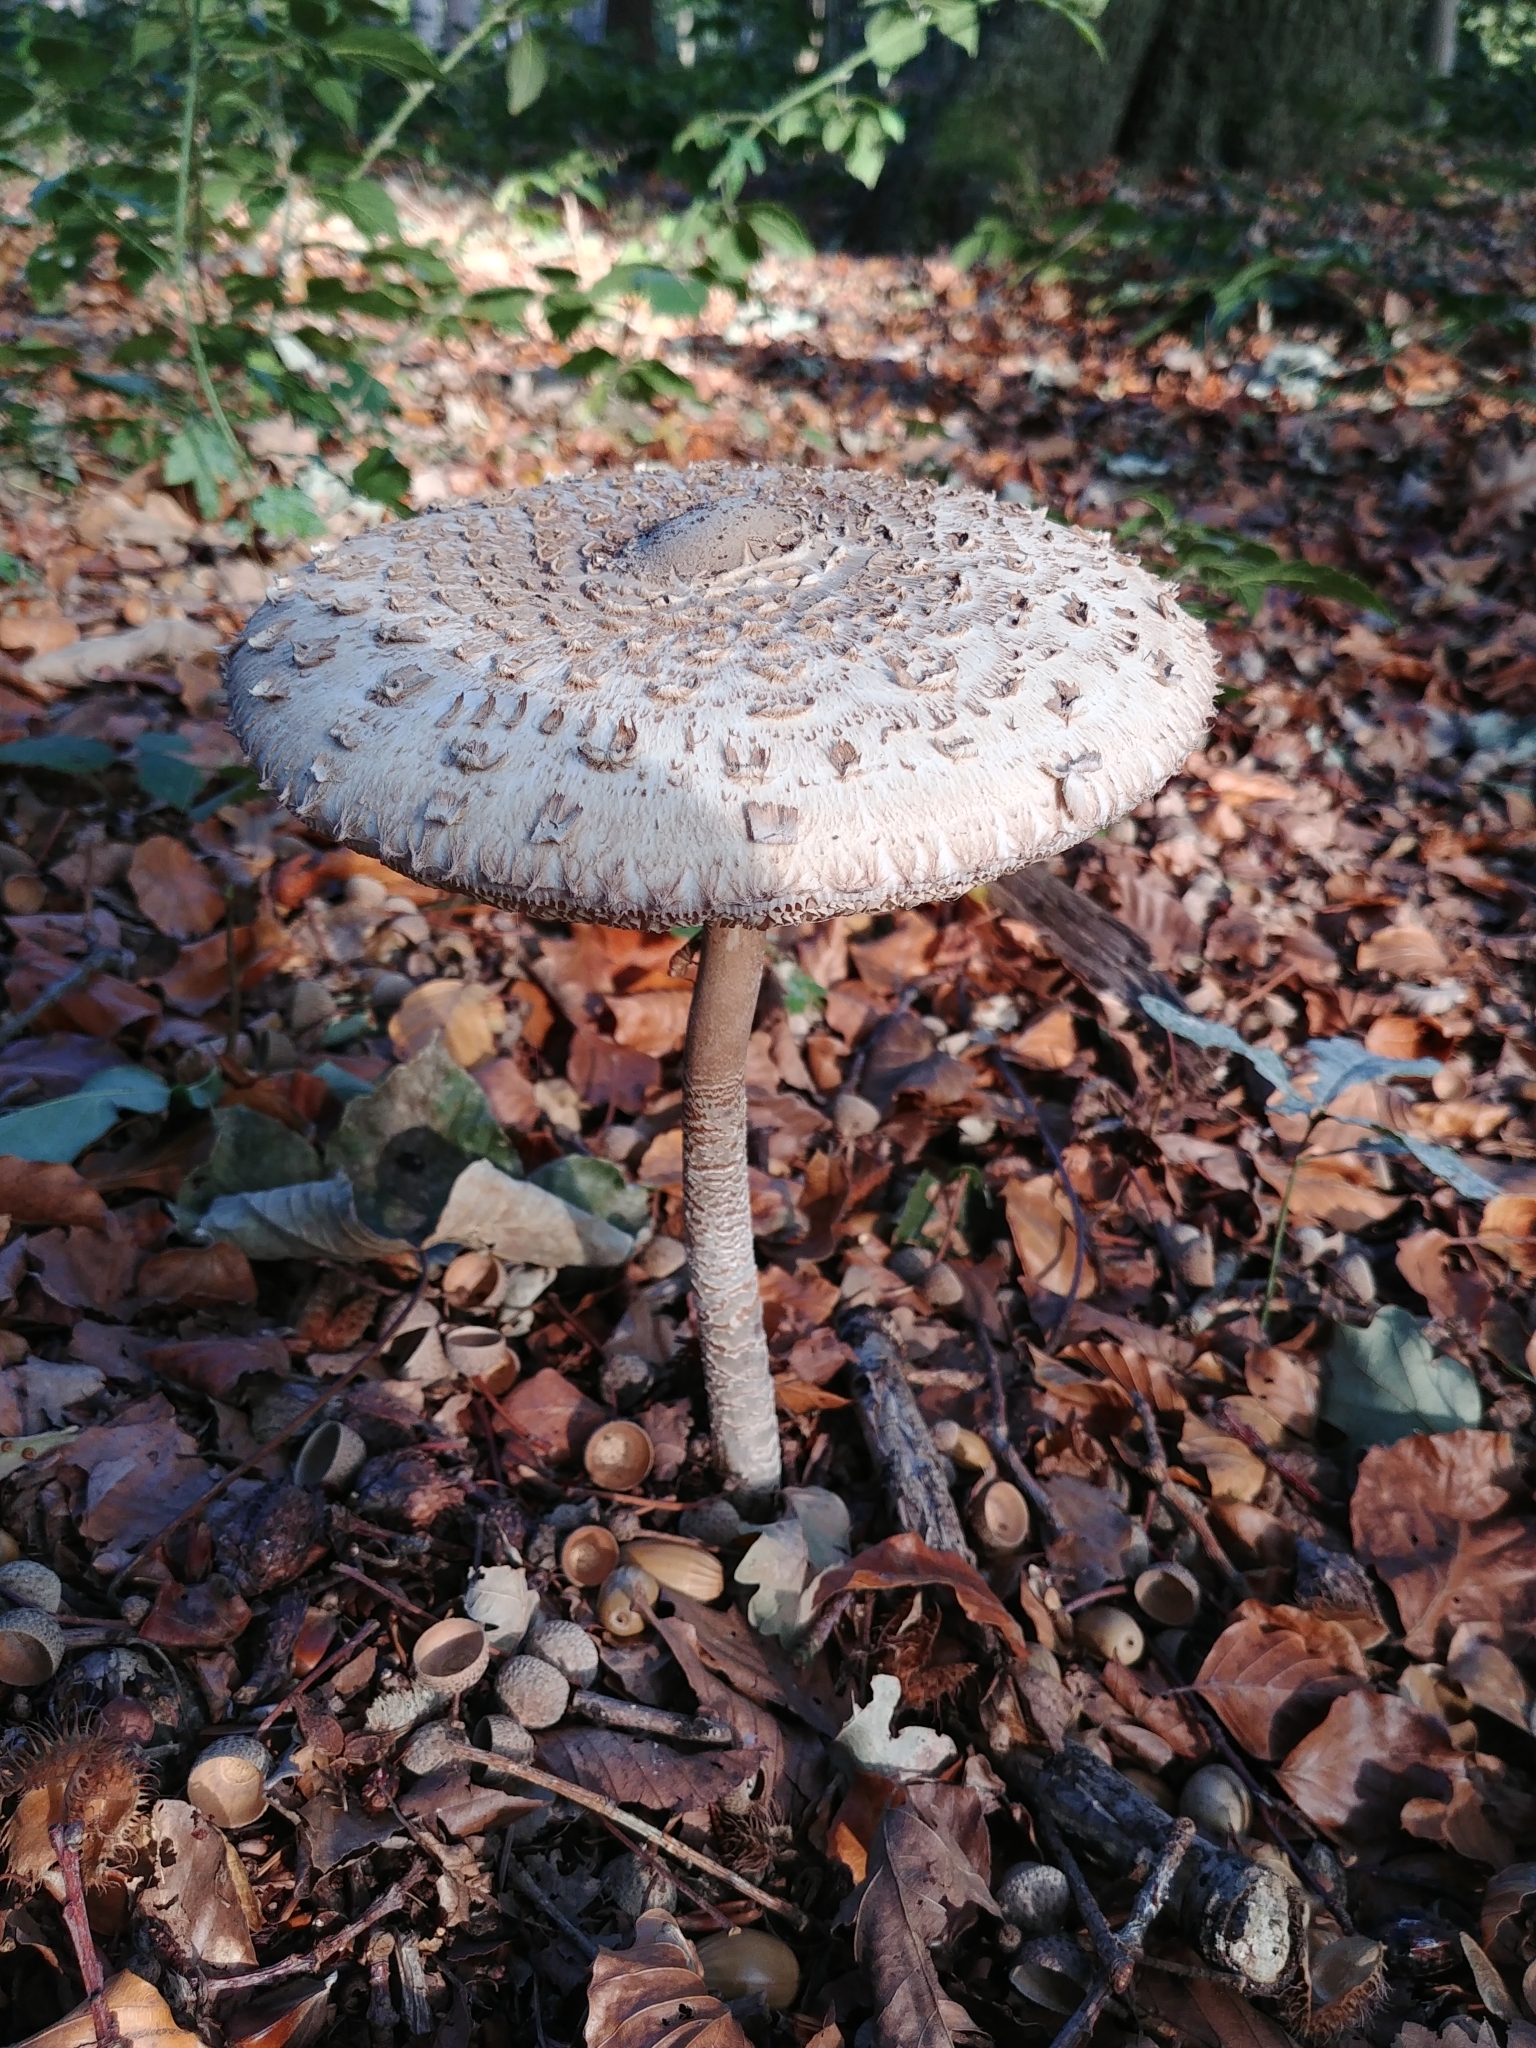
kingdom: Fungi
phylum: Basidiomycota
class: Agaricomycetes
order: Agaricales
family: Agaricaceae
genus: Macrolepiota
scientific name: Macrolepiota procera
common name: Parasol
